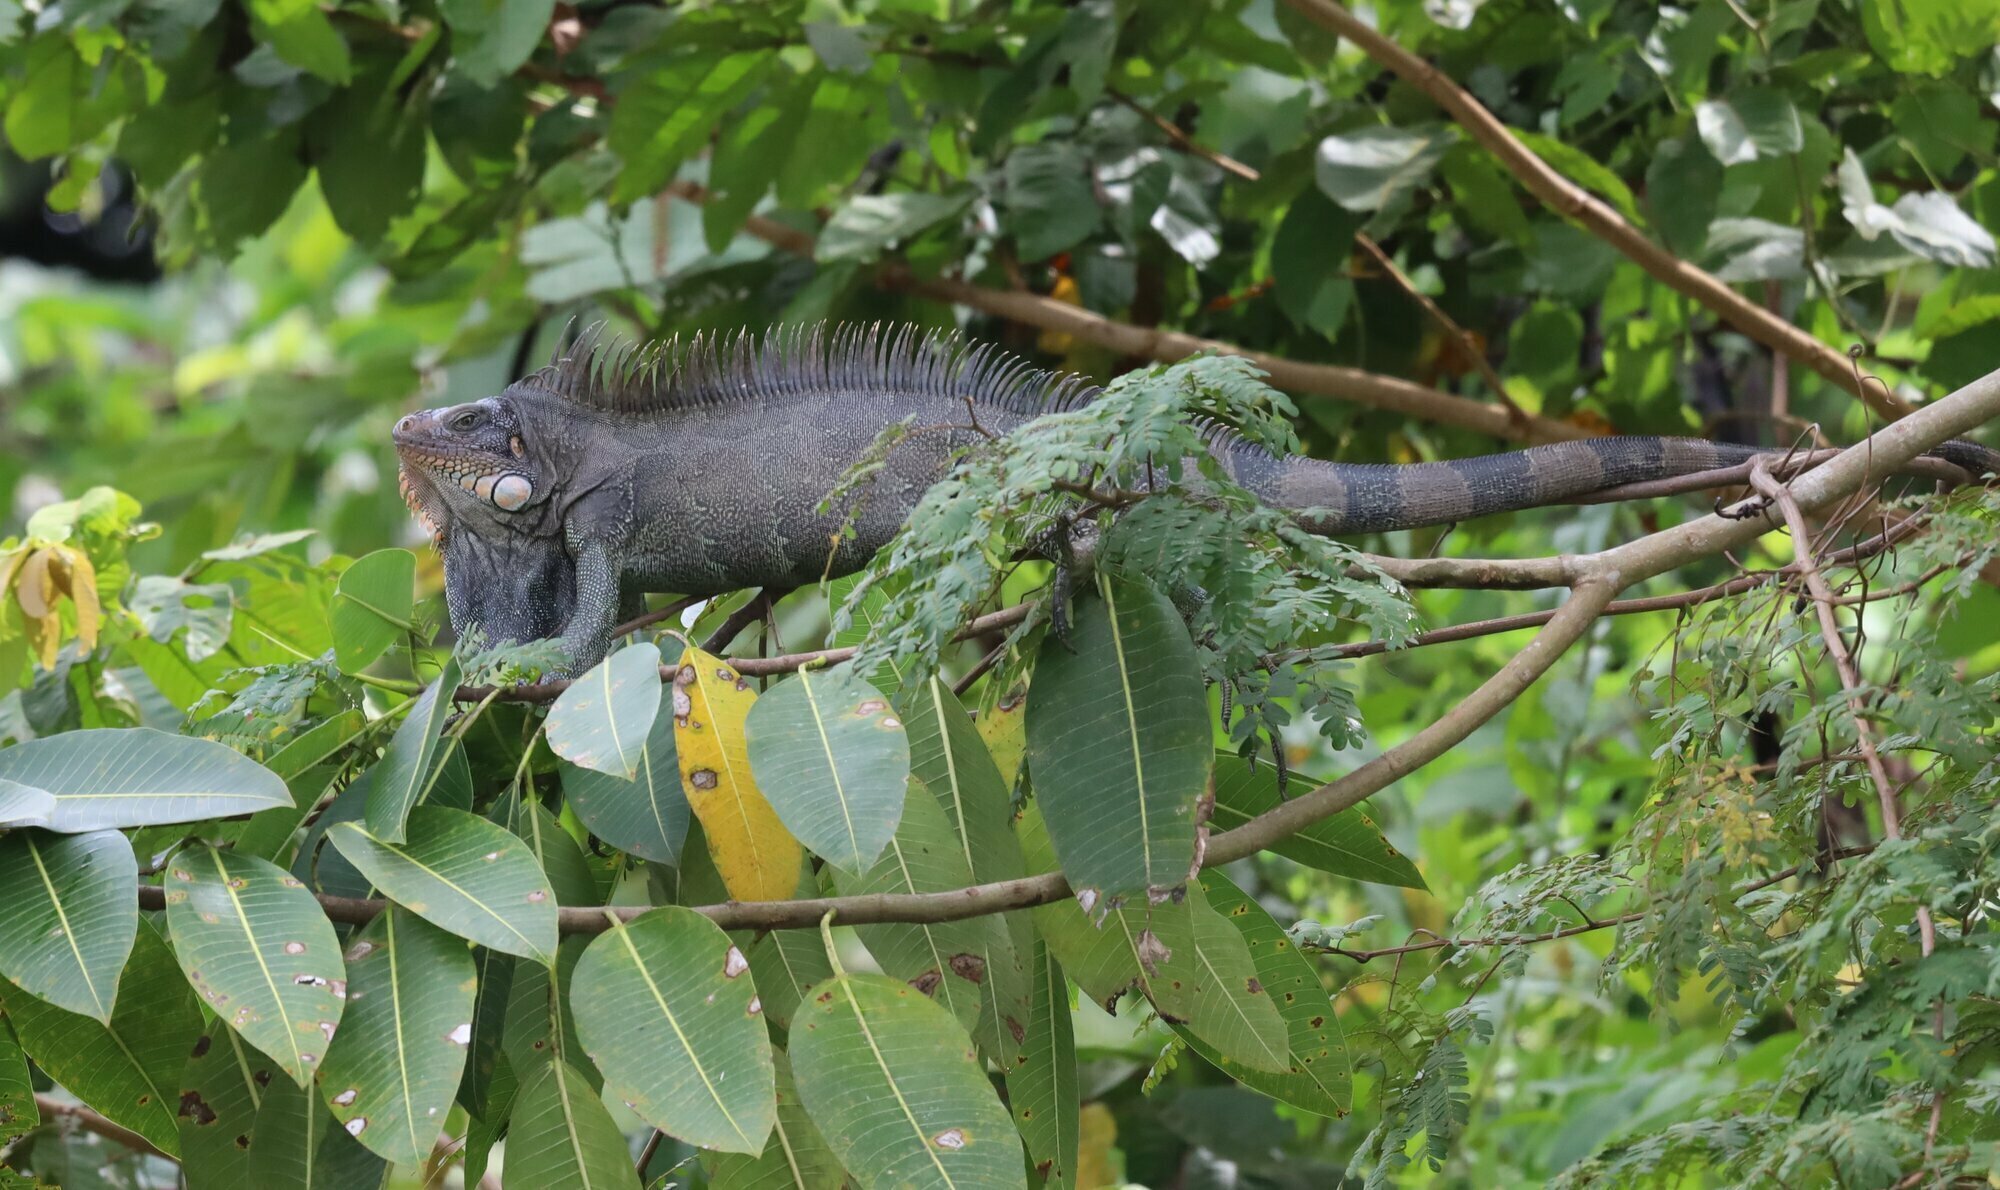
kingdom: Animalia
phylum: Chordata
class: Squamata
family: Iguanidae
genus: Iguana
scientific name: Iguana iguana
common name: Green iguana
